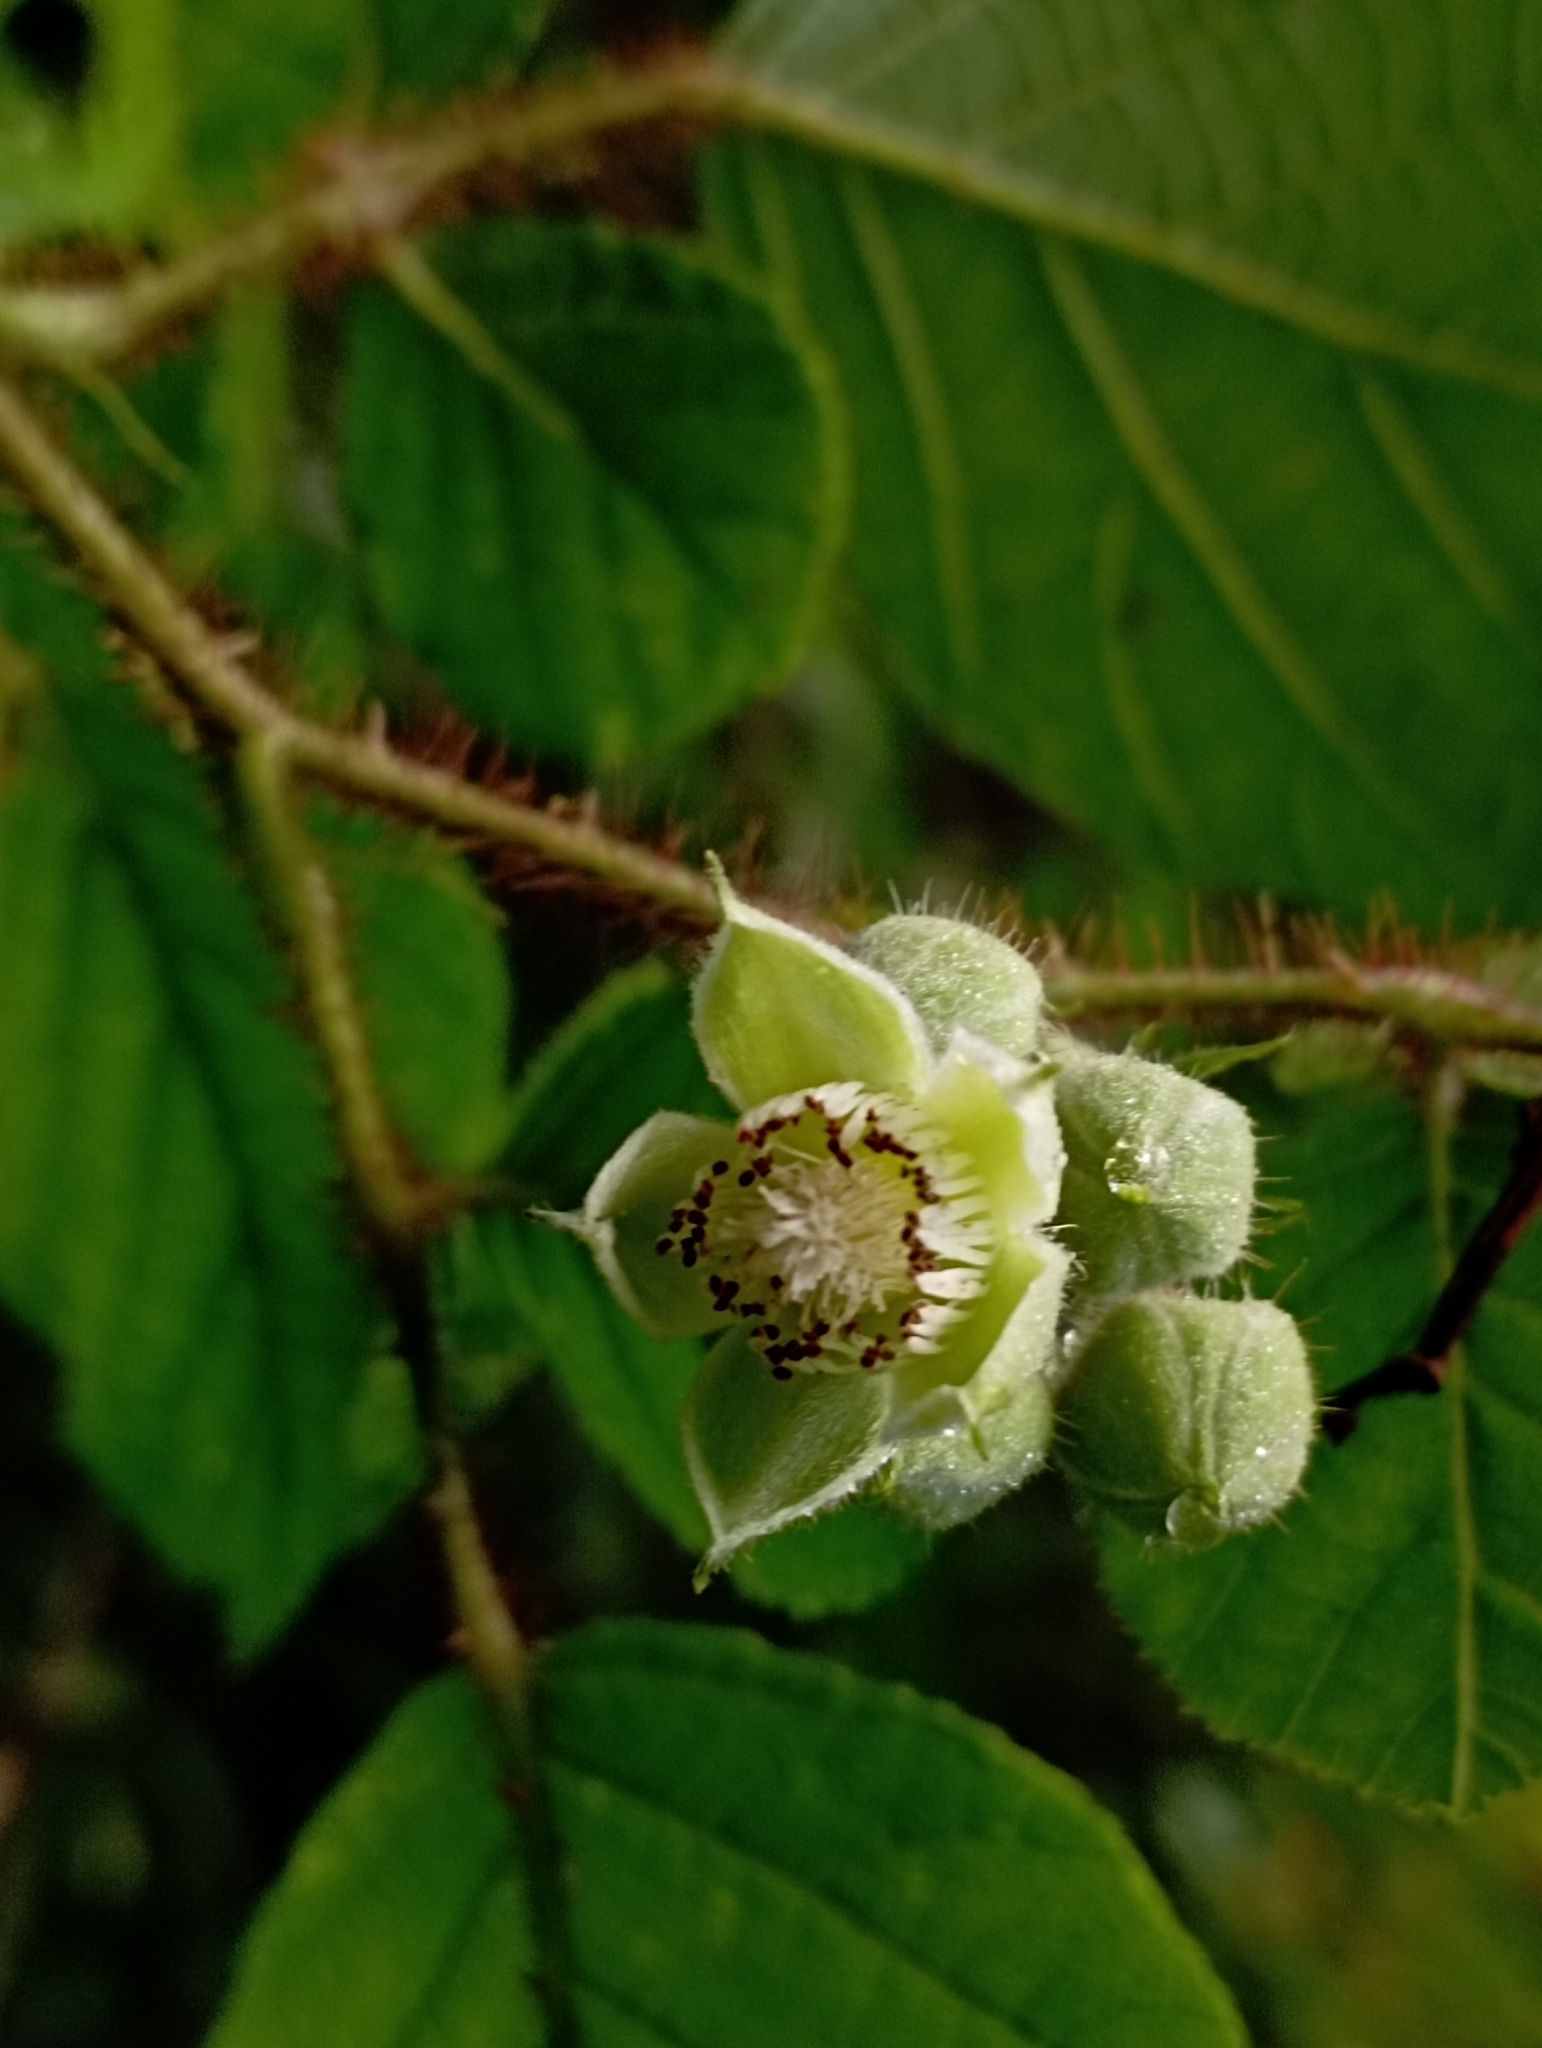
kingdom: Plantae
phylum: Tracheophyta
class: Magnoliopsida
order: Rosales
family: Rosaceae
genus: Rubus
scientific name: Rubus ellipticus
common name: Cheeseberry
